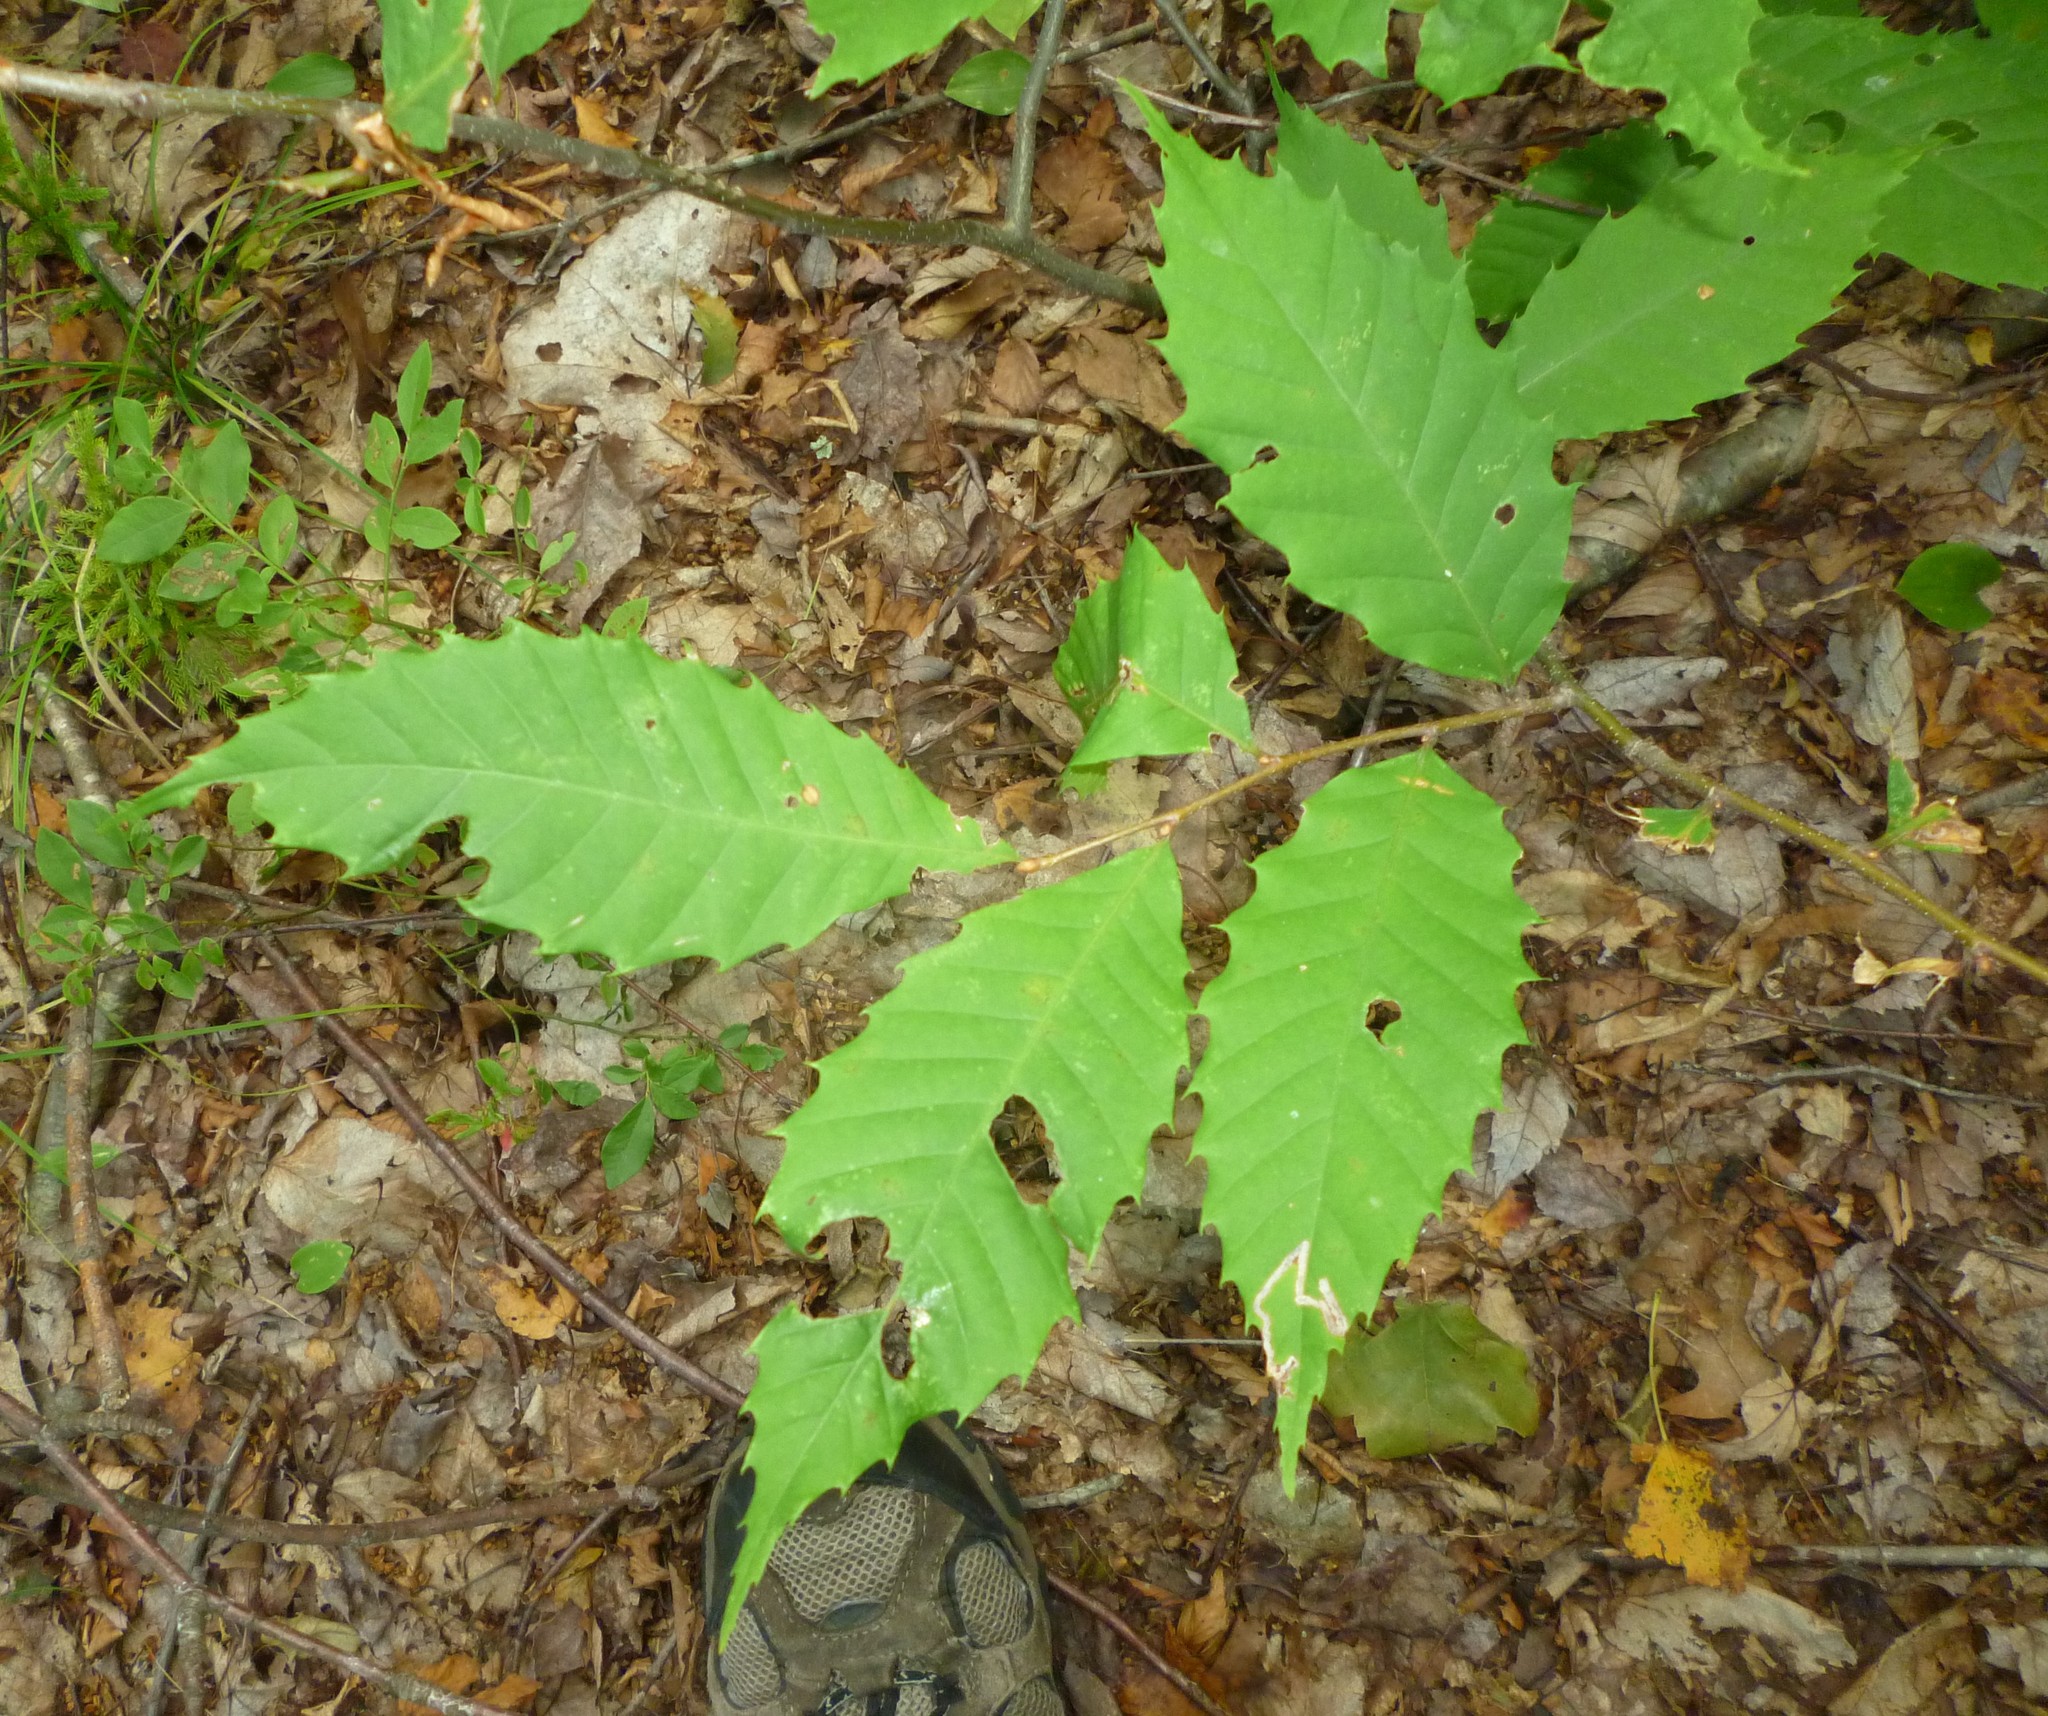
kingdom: Plantae
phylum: Tracheophyta
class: Magnoliopsida
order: Fagales
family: Fagaceae
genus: Castanea
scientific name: Castanea dentata
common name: American chestnut
